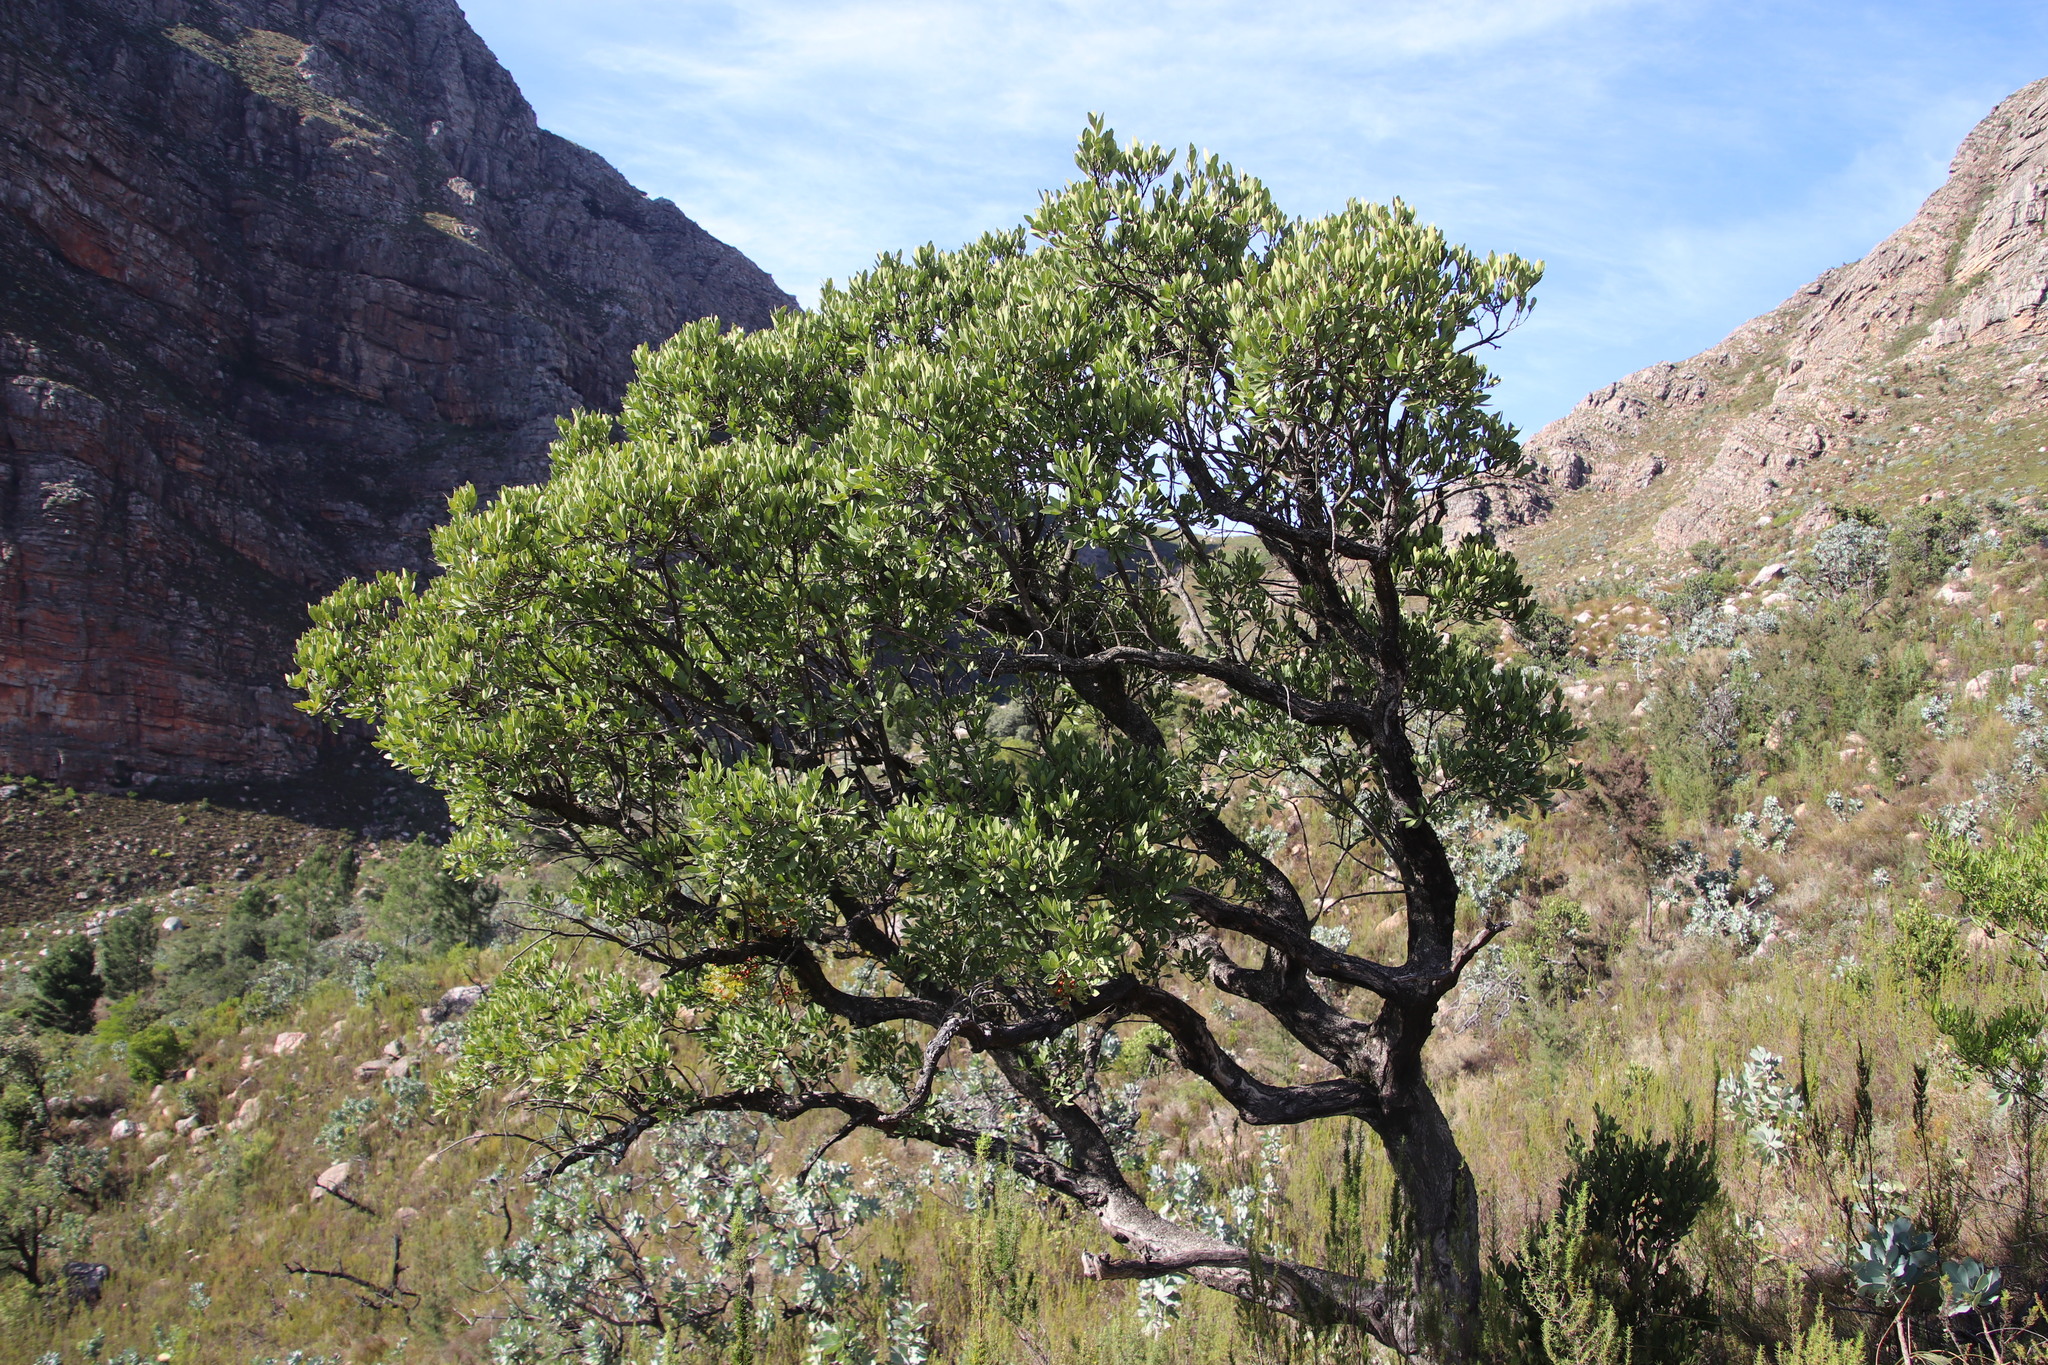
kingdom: Plantae
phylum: Tracheophyta
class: Magnoliopsida
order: Celastrales
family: Celastraceae
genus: Gymnosporia
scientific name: Gymnosporia laurina
